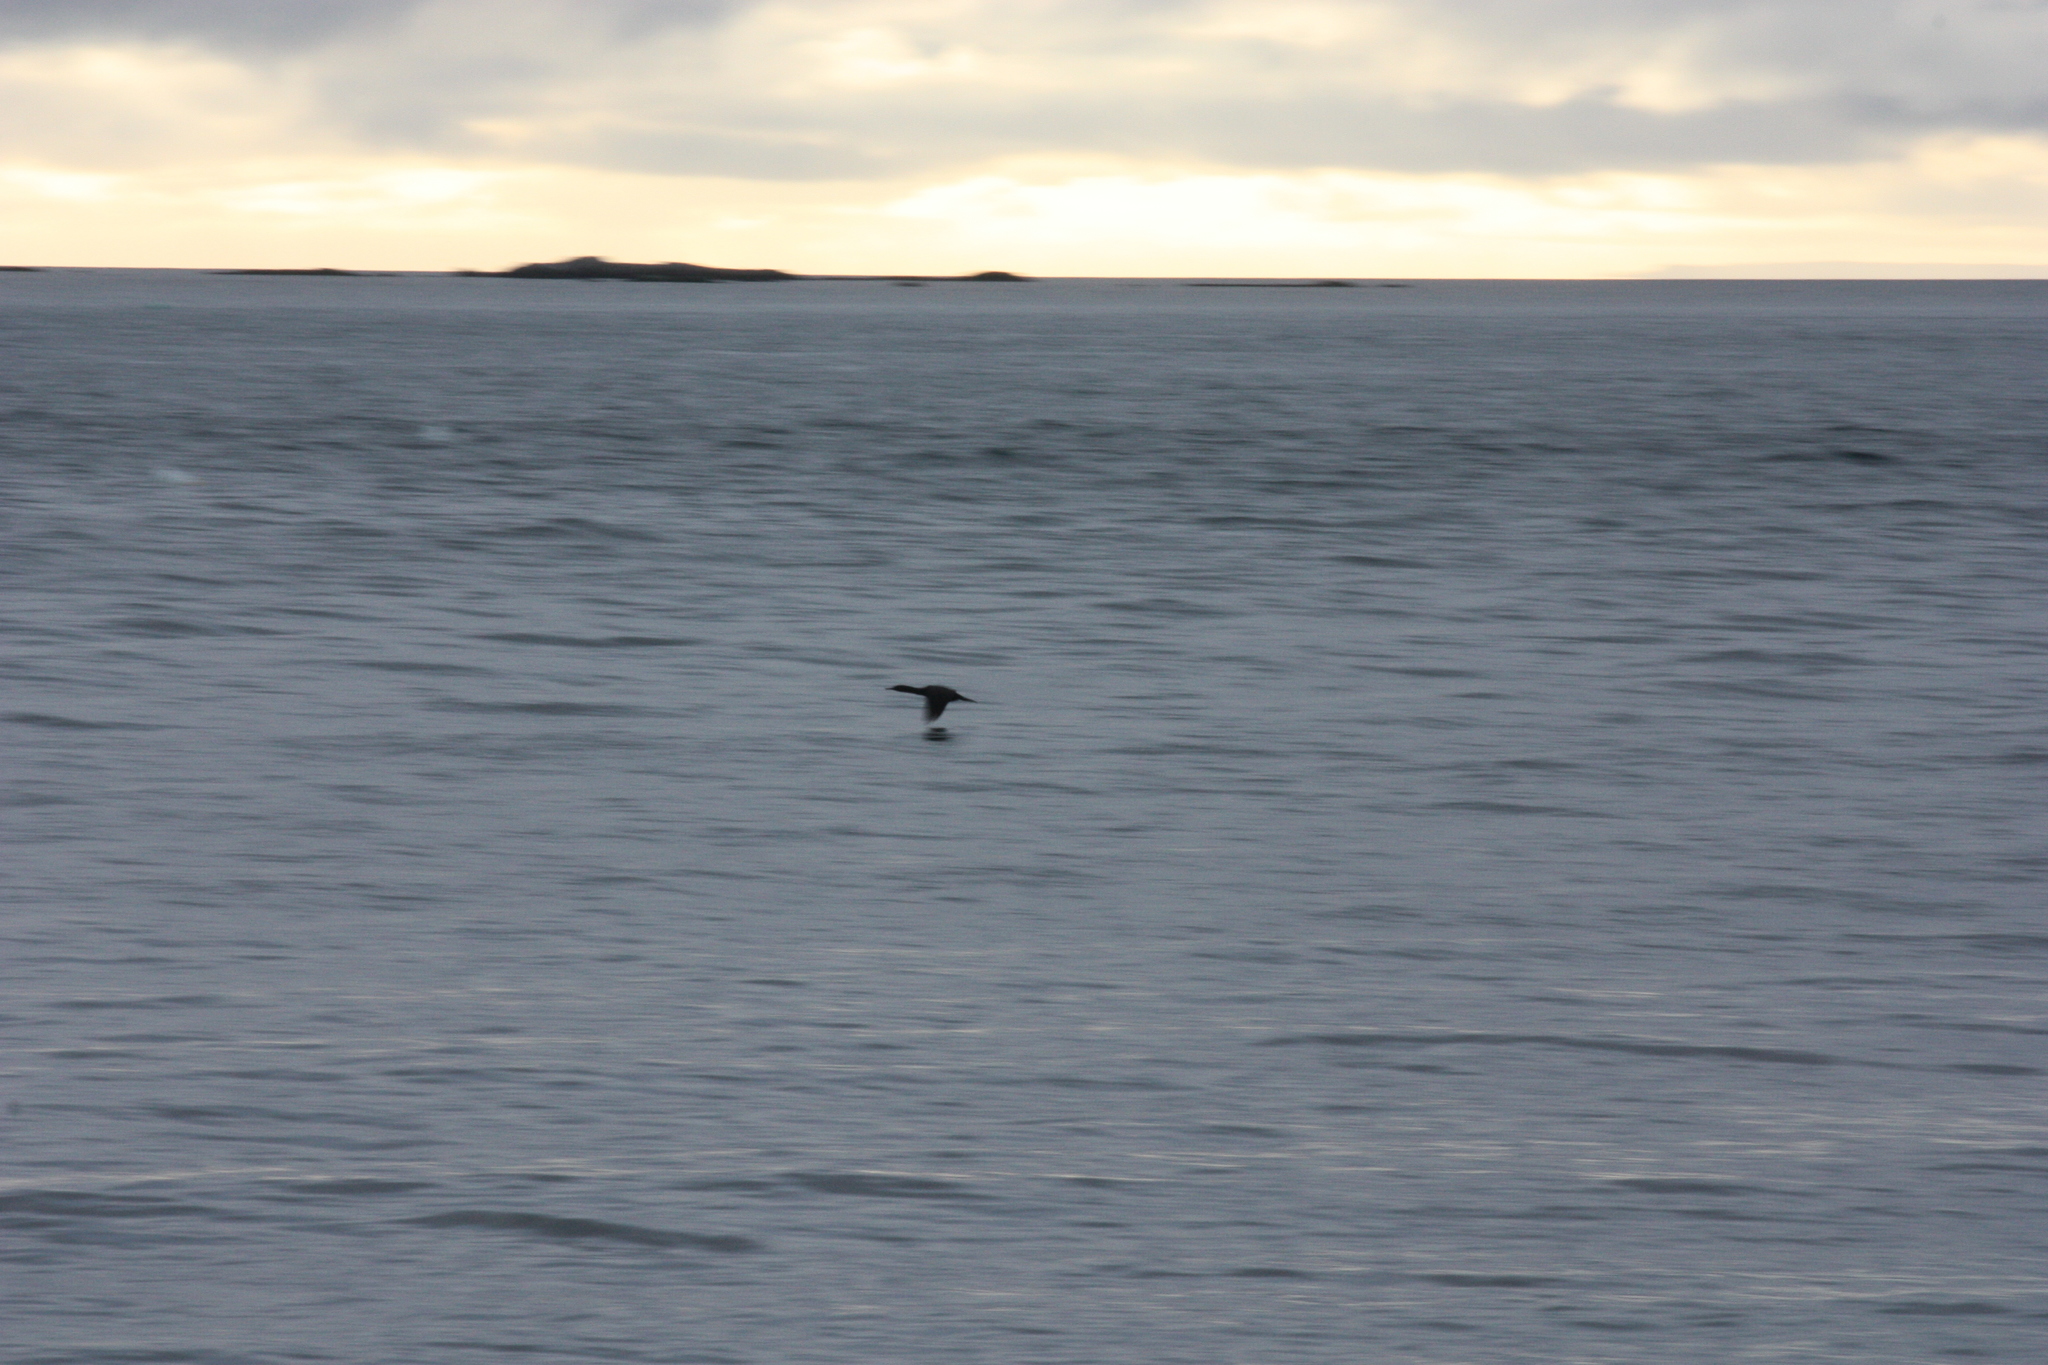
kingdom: Animalia
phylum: Chordata
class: Aves
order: Suliformes
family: Phalacrocoracidae
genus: Urile
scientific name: Urile penicillatus
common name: Brandt's cormorant
